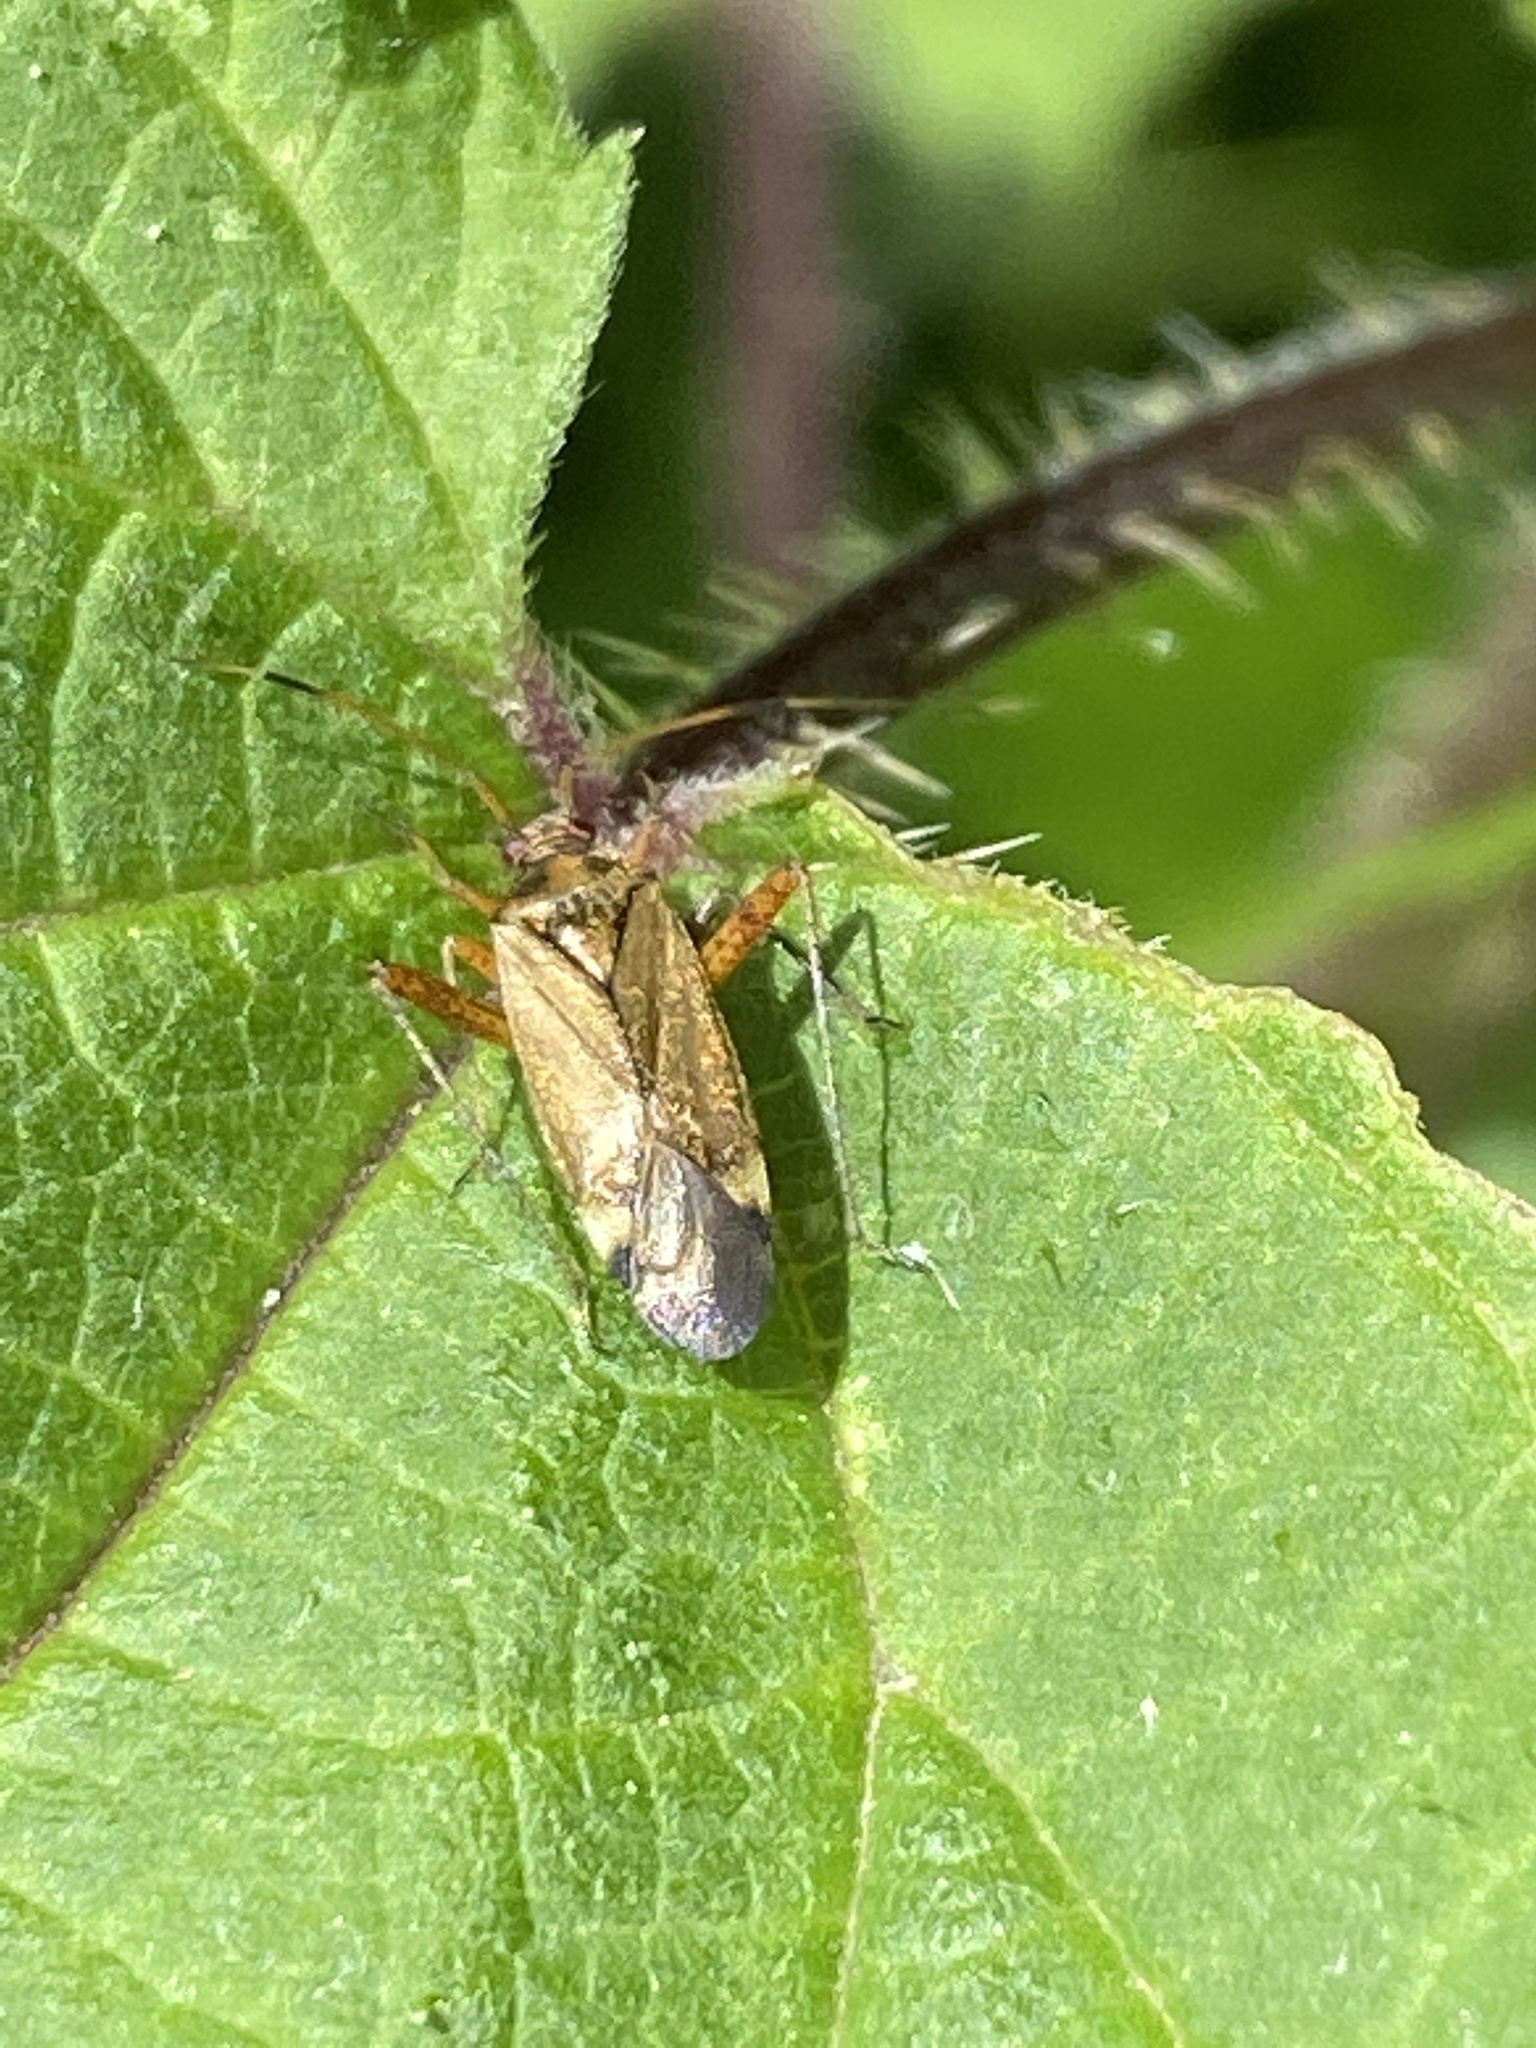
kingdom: Animalia
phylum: Arthropoda
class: Insecta
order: Hemiptera
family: Miridae
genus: Closterotomus
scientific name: Closterotomus fulvomaculatus
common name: Spotted plant bug
